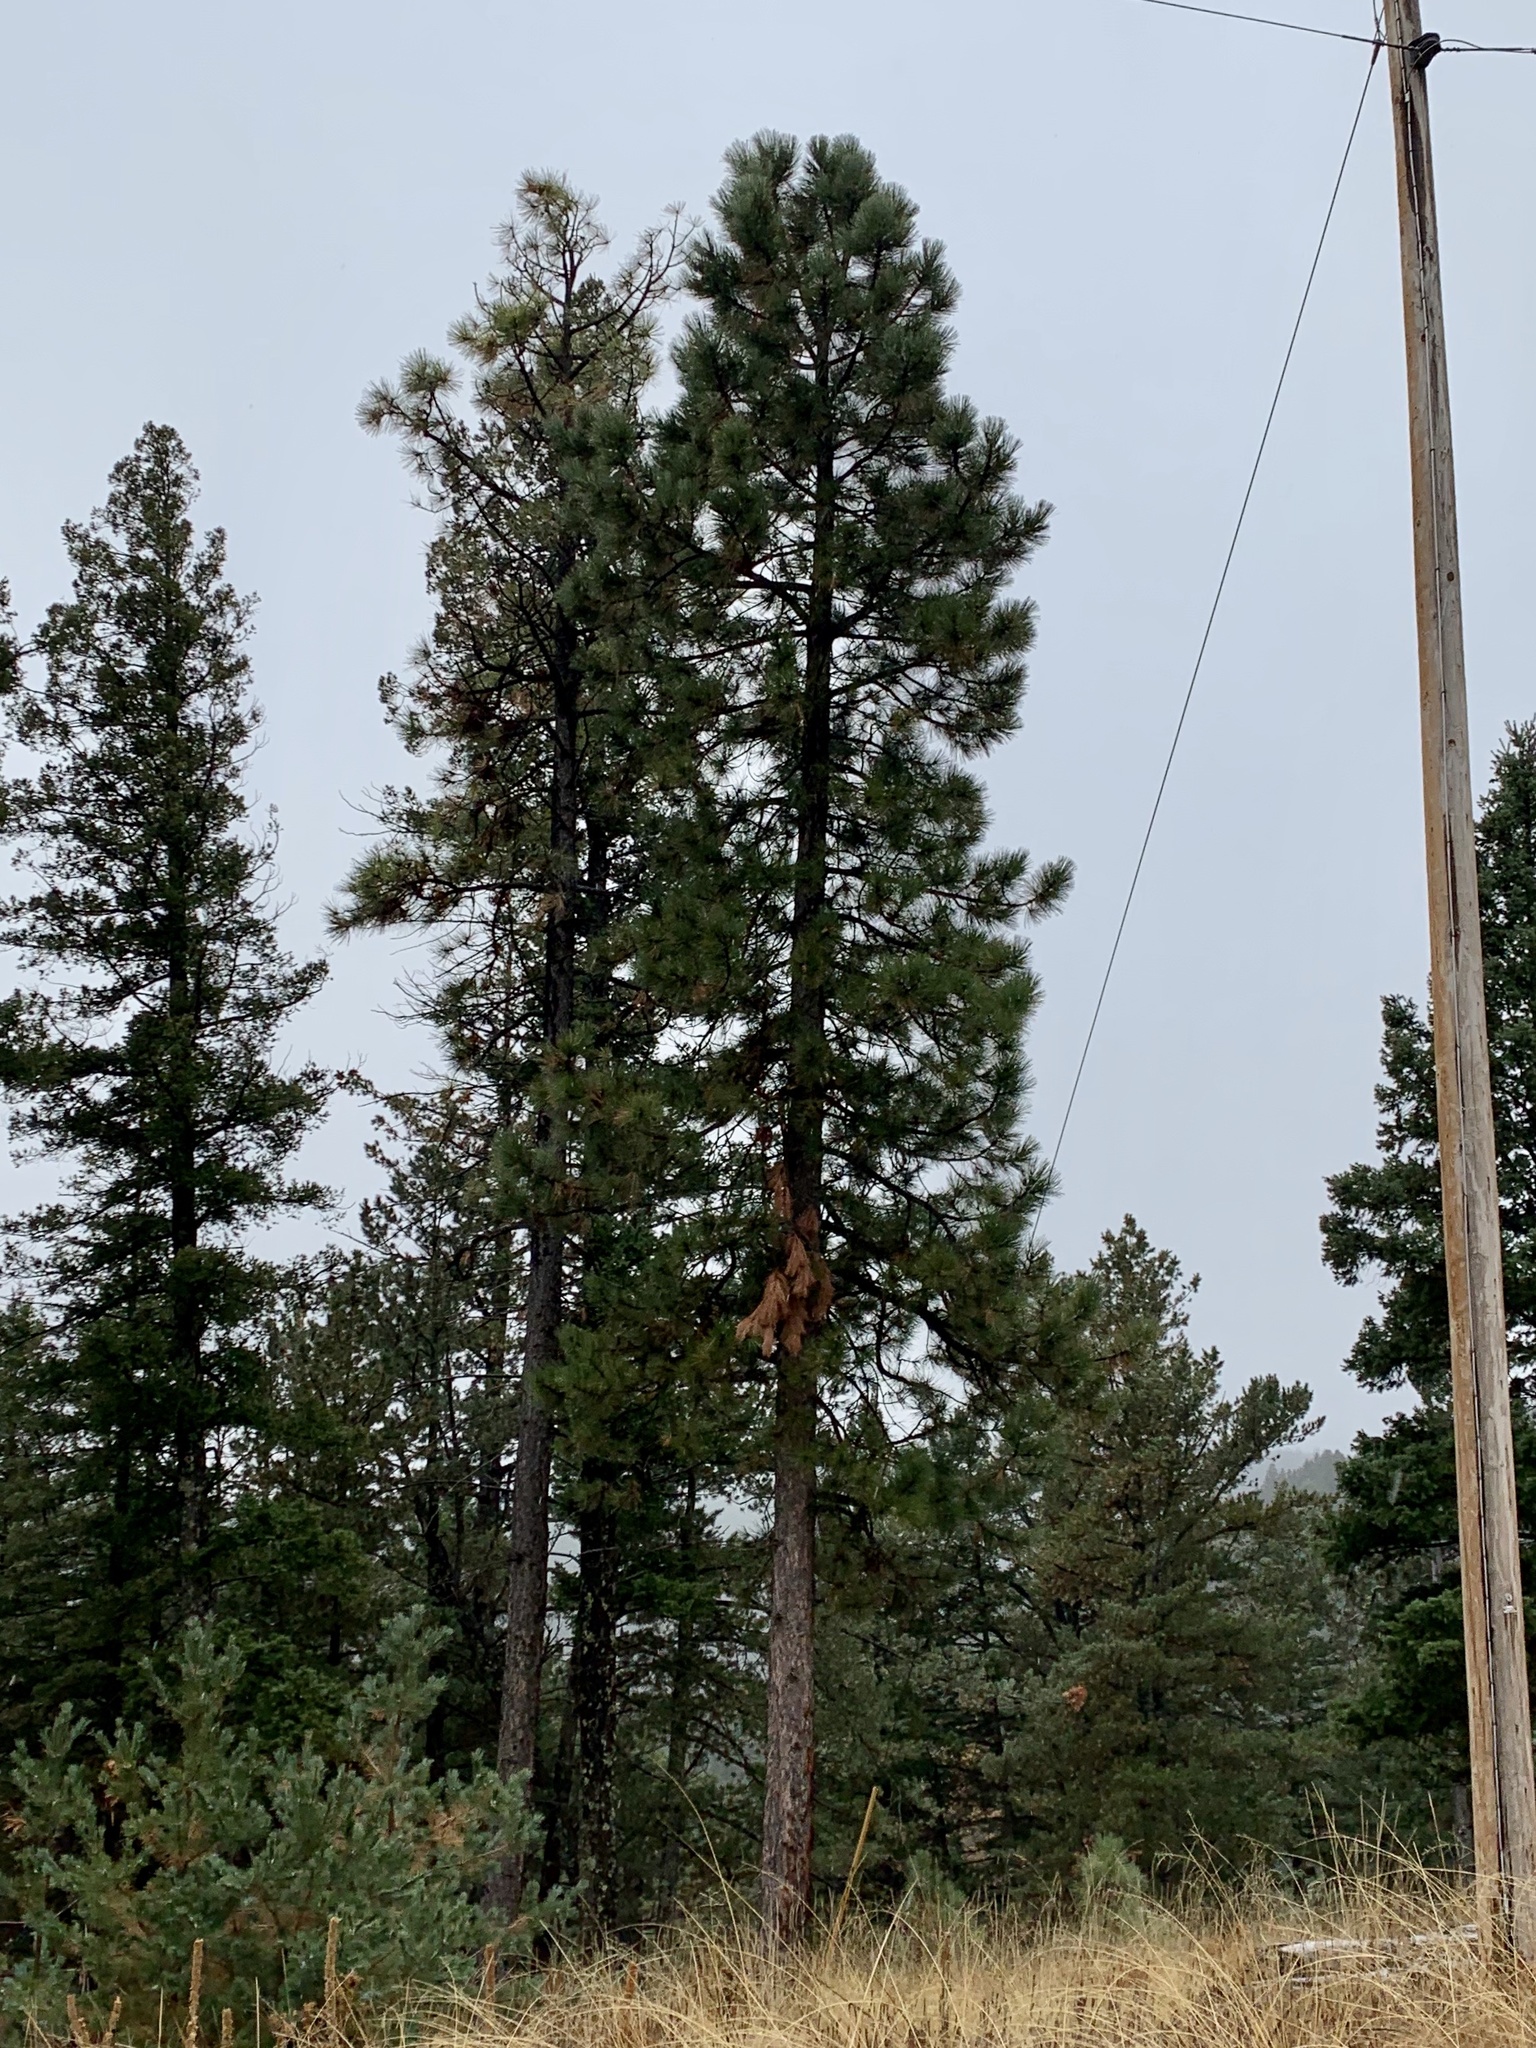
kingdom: Plantae
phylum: Tracheophyta
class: Pinopsida
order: Pinales
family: Pinaceae
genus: Pinus
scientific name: Pinus ponderosa
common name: Western yellow-pine
